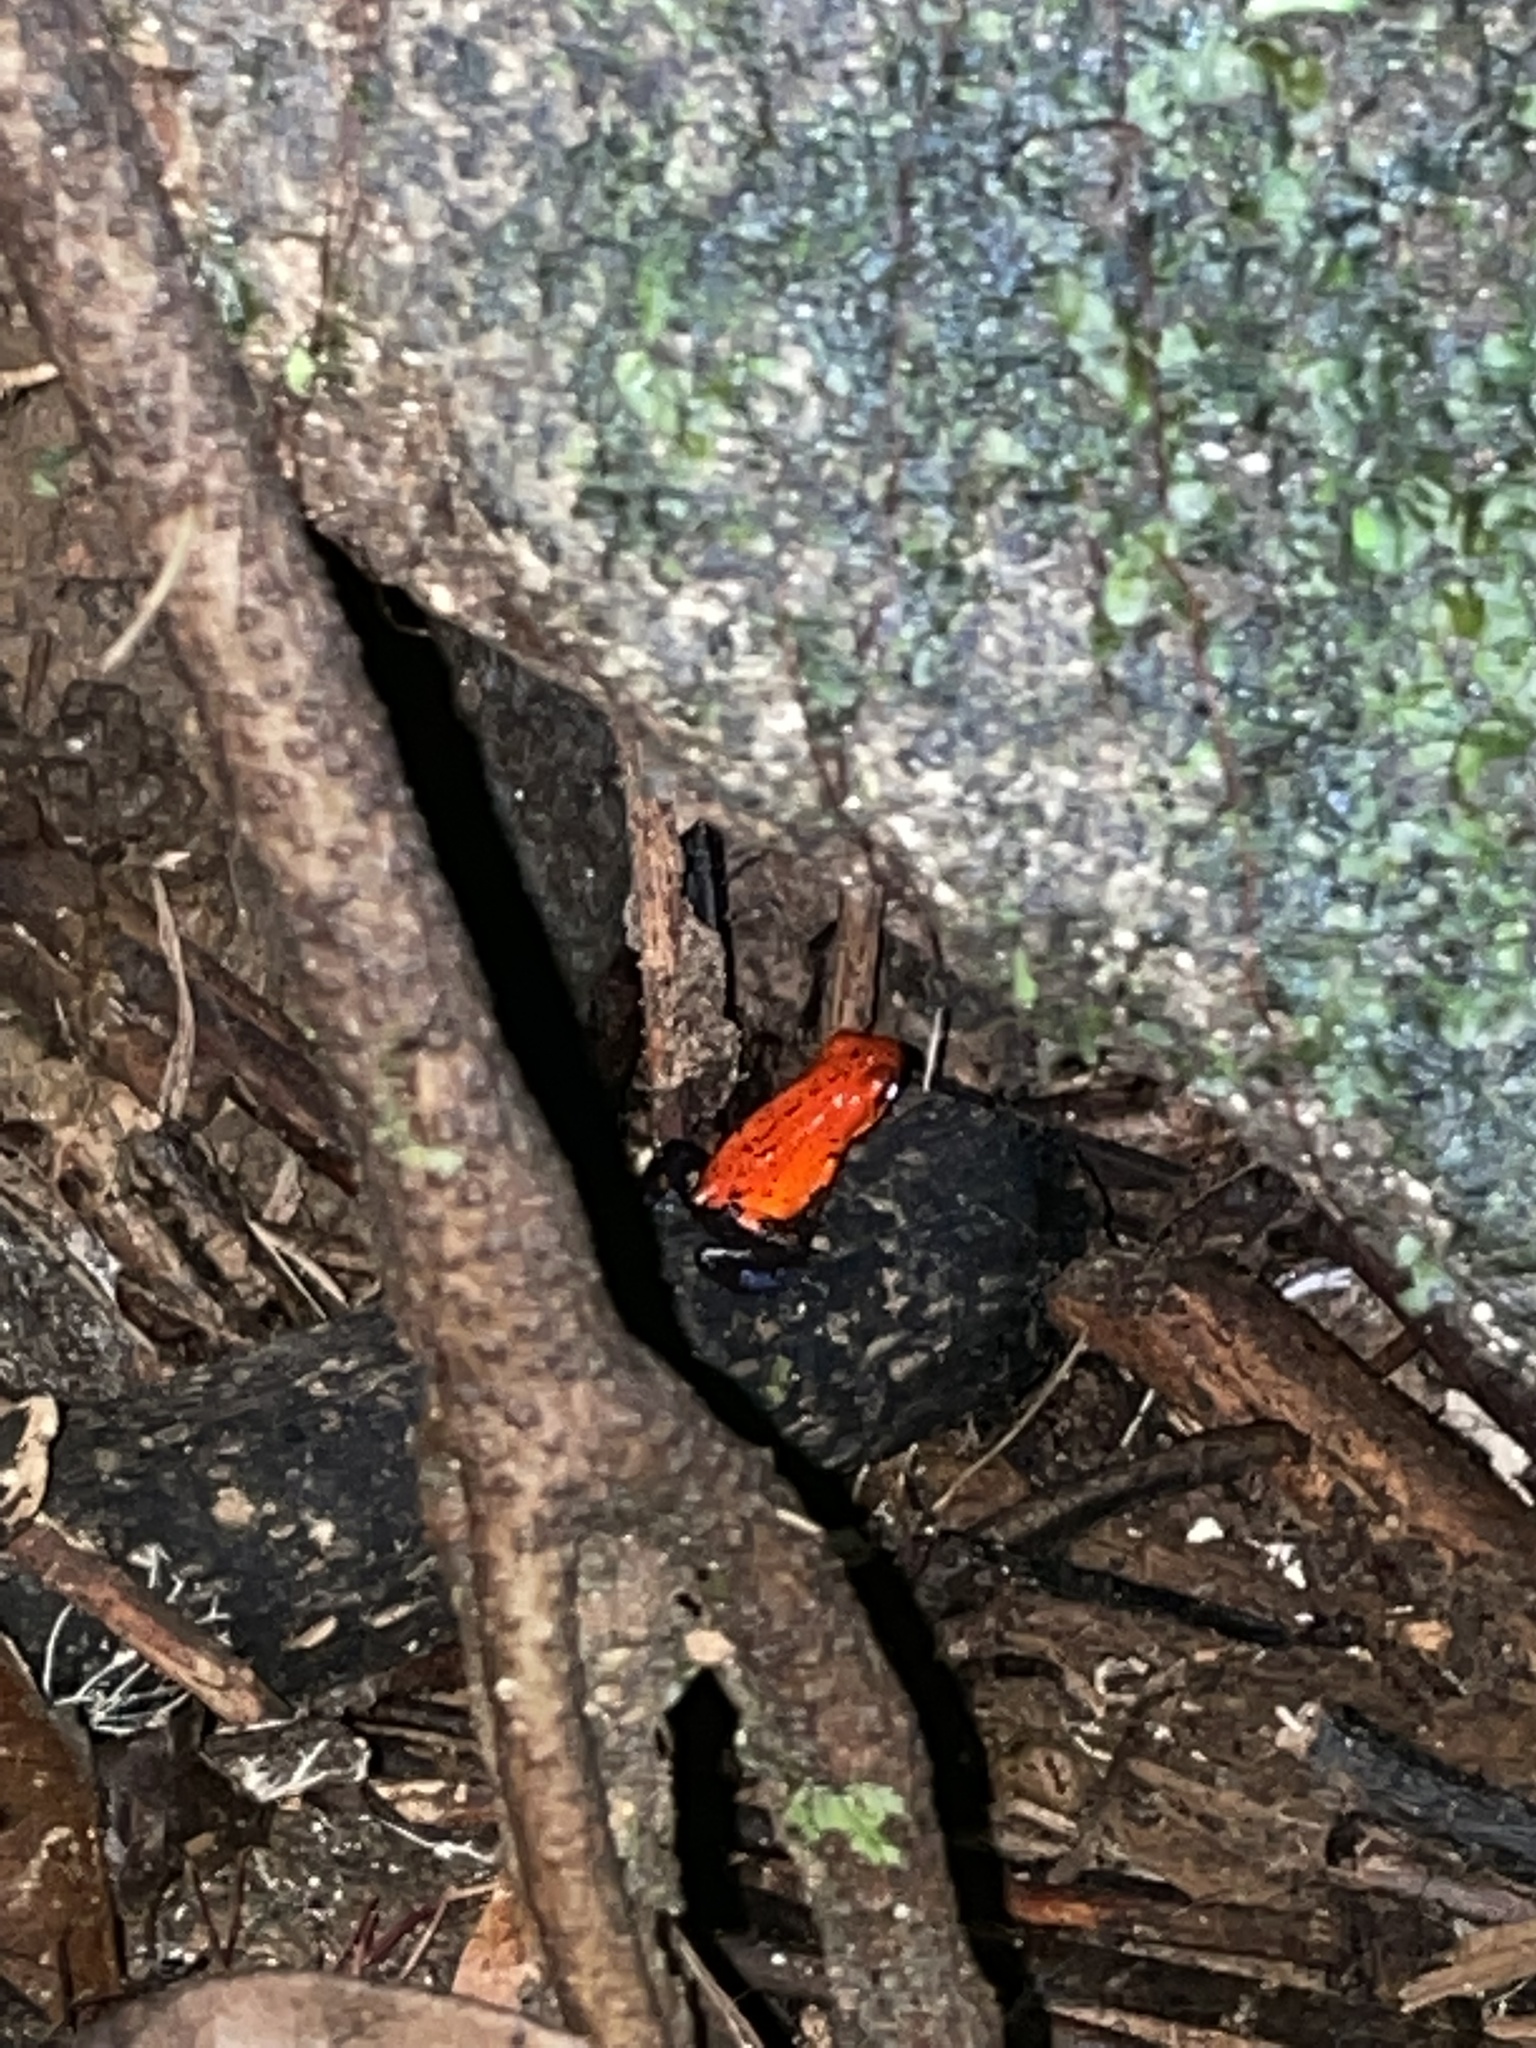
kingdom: Animalia
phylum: Chordata
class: Amphibia
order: Anura
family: Dendrobatidae
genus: Oophaga
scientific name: Oophaga pumilio
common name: Flaming poison frog
